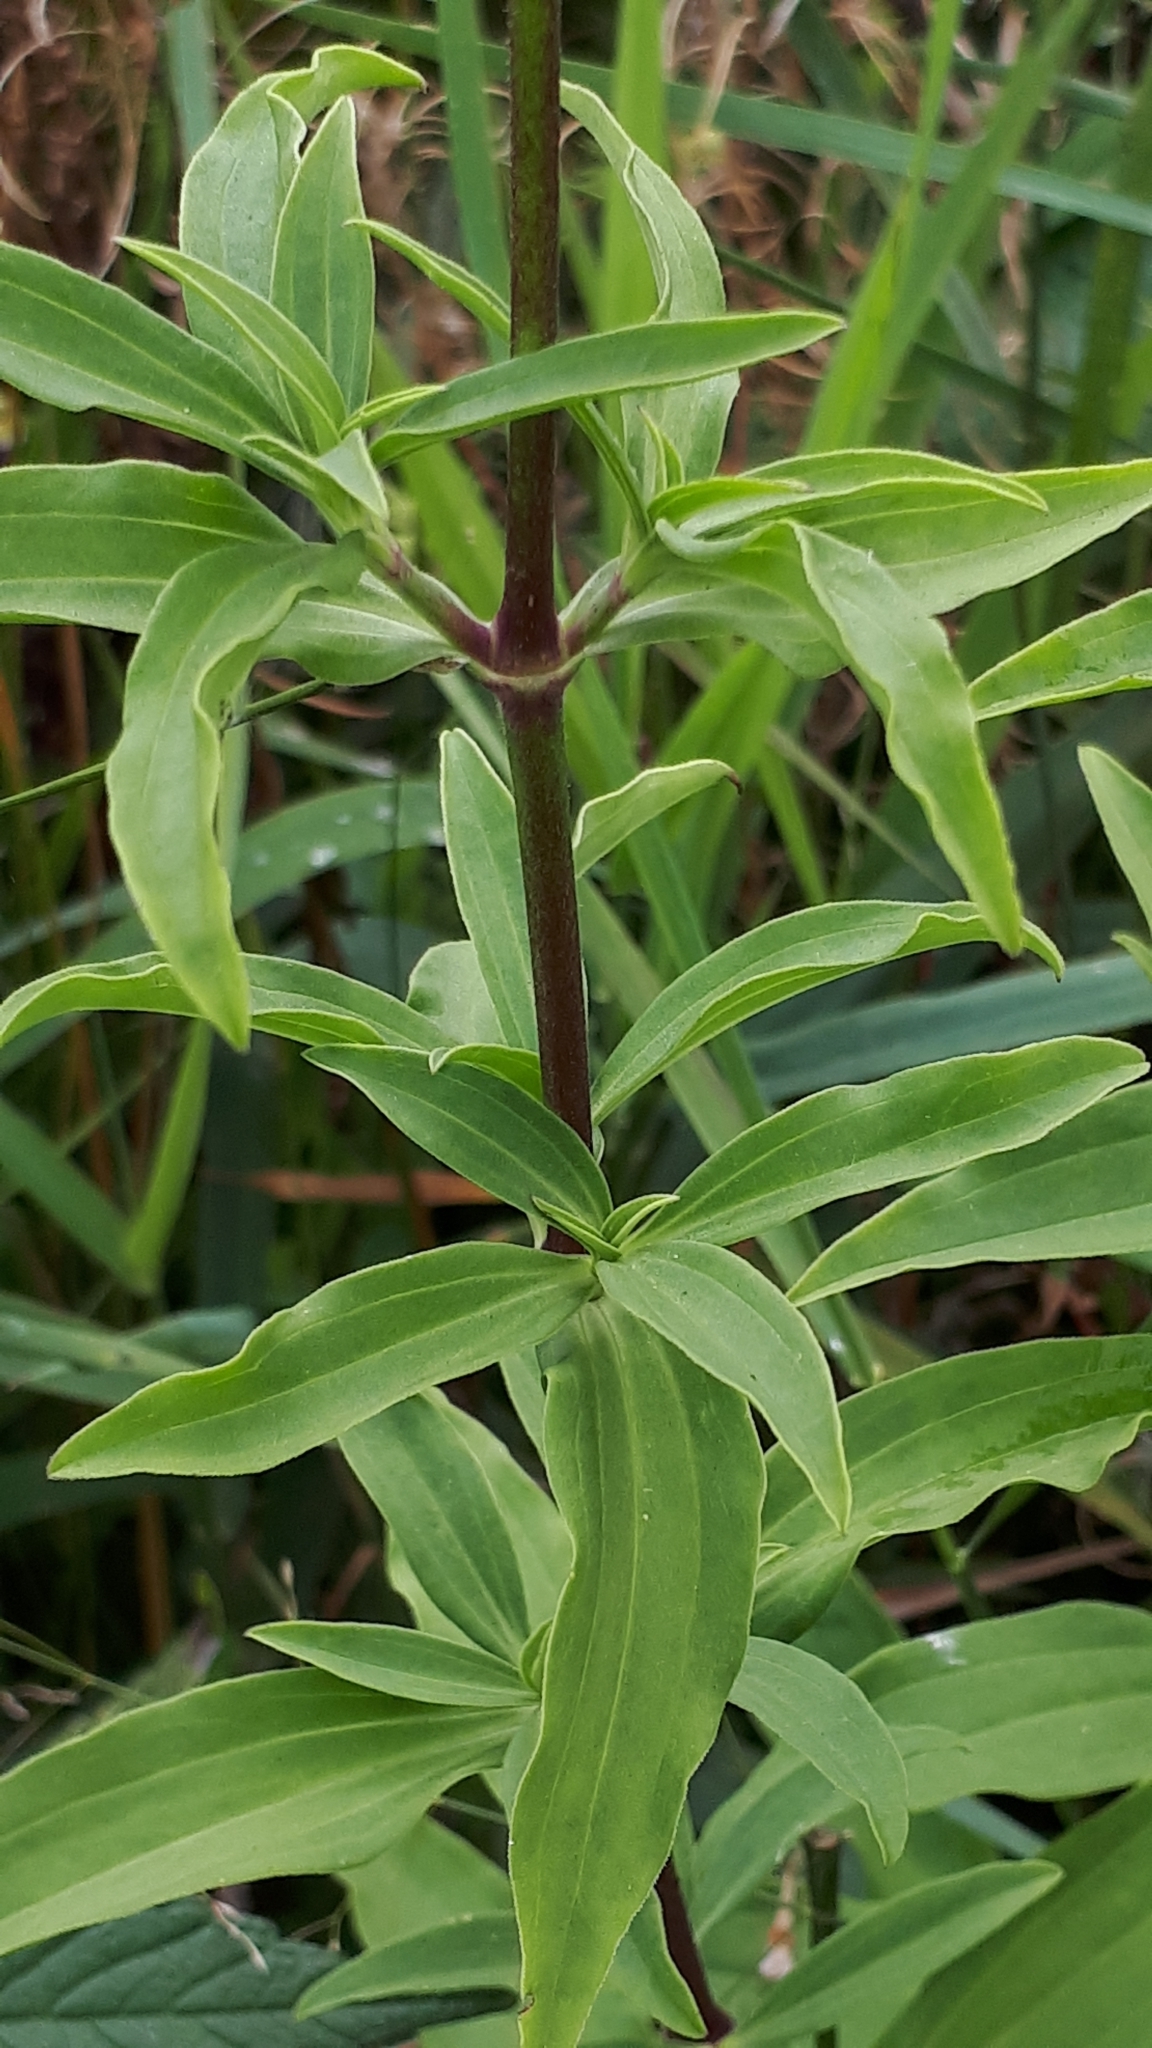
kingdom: Plantae
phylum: Tracheophyta
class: Magnoliopsida
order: Caryophyllales
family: Caryophyllaceae
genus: Saponaria
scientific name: Saponaria officinalis
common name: Soapwort
